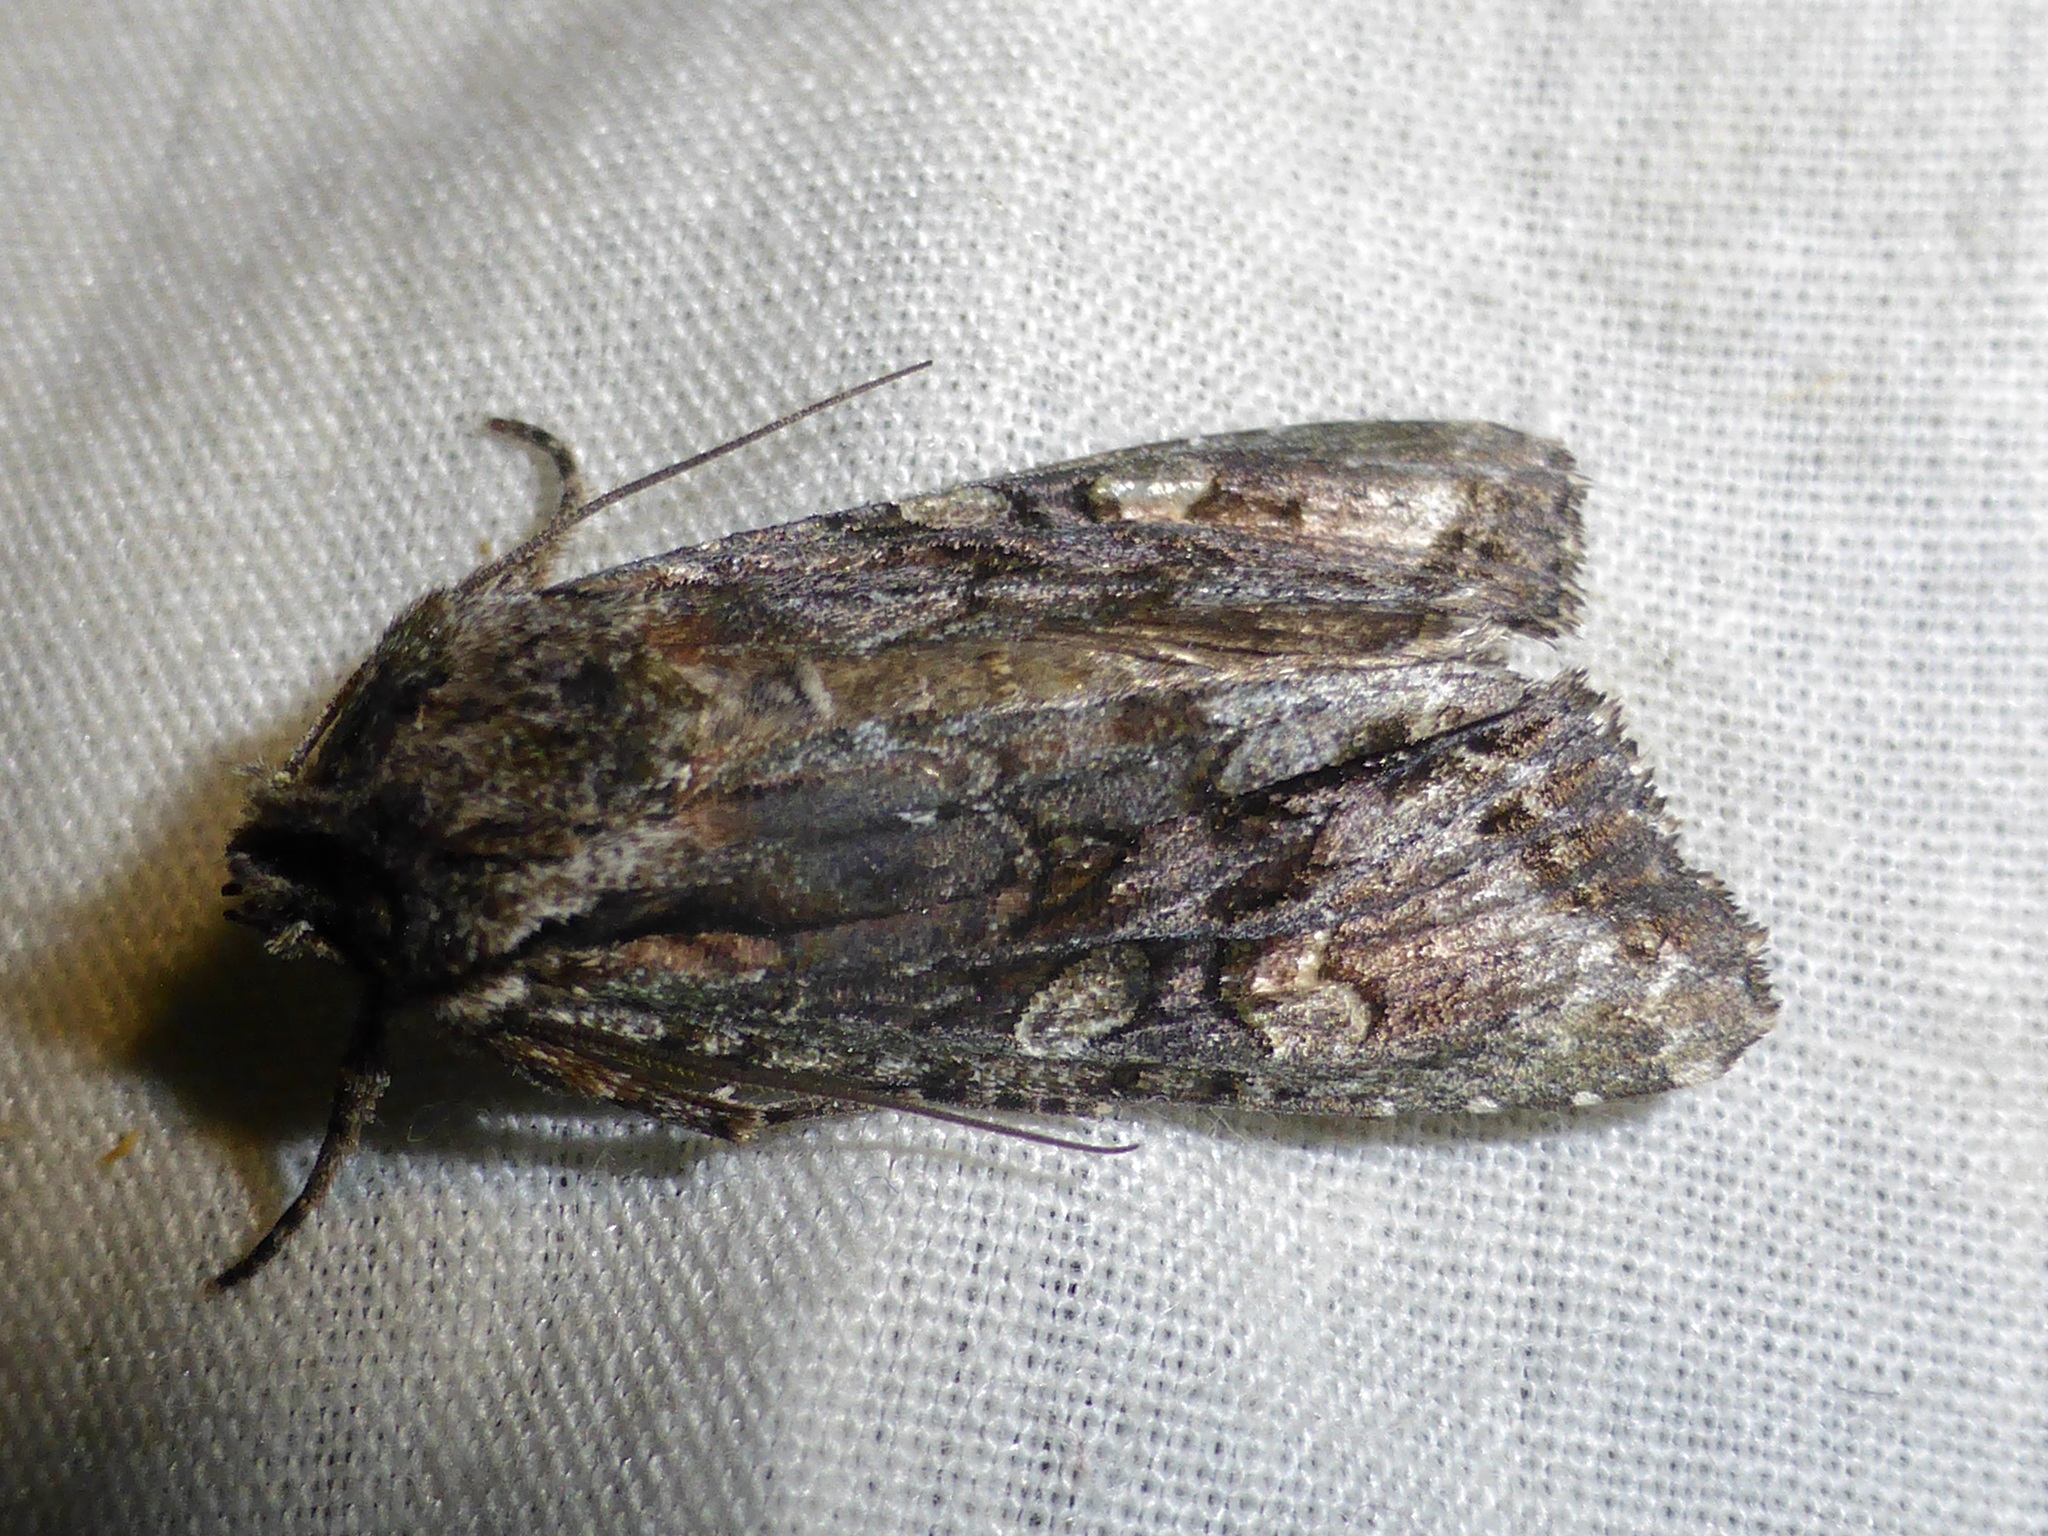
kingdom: Animalia
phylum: Arthropoda
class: Insecta
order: Lepidoptera
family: Noctuidae
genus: Ichneutica
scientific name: Ichneutica mutans
